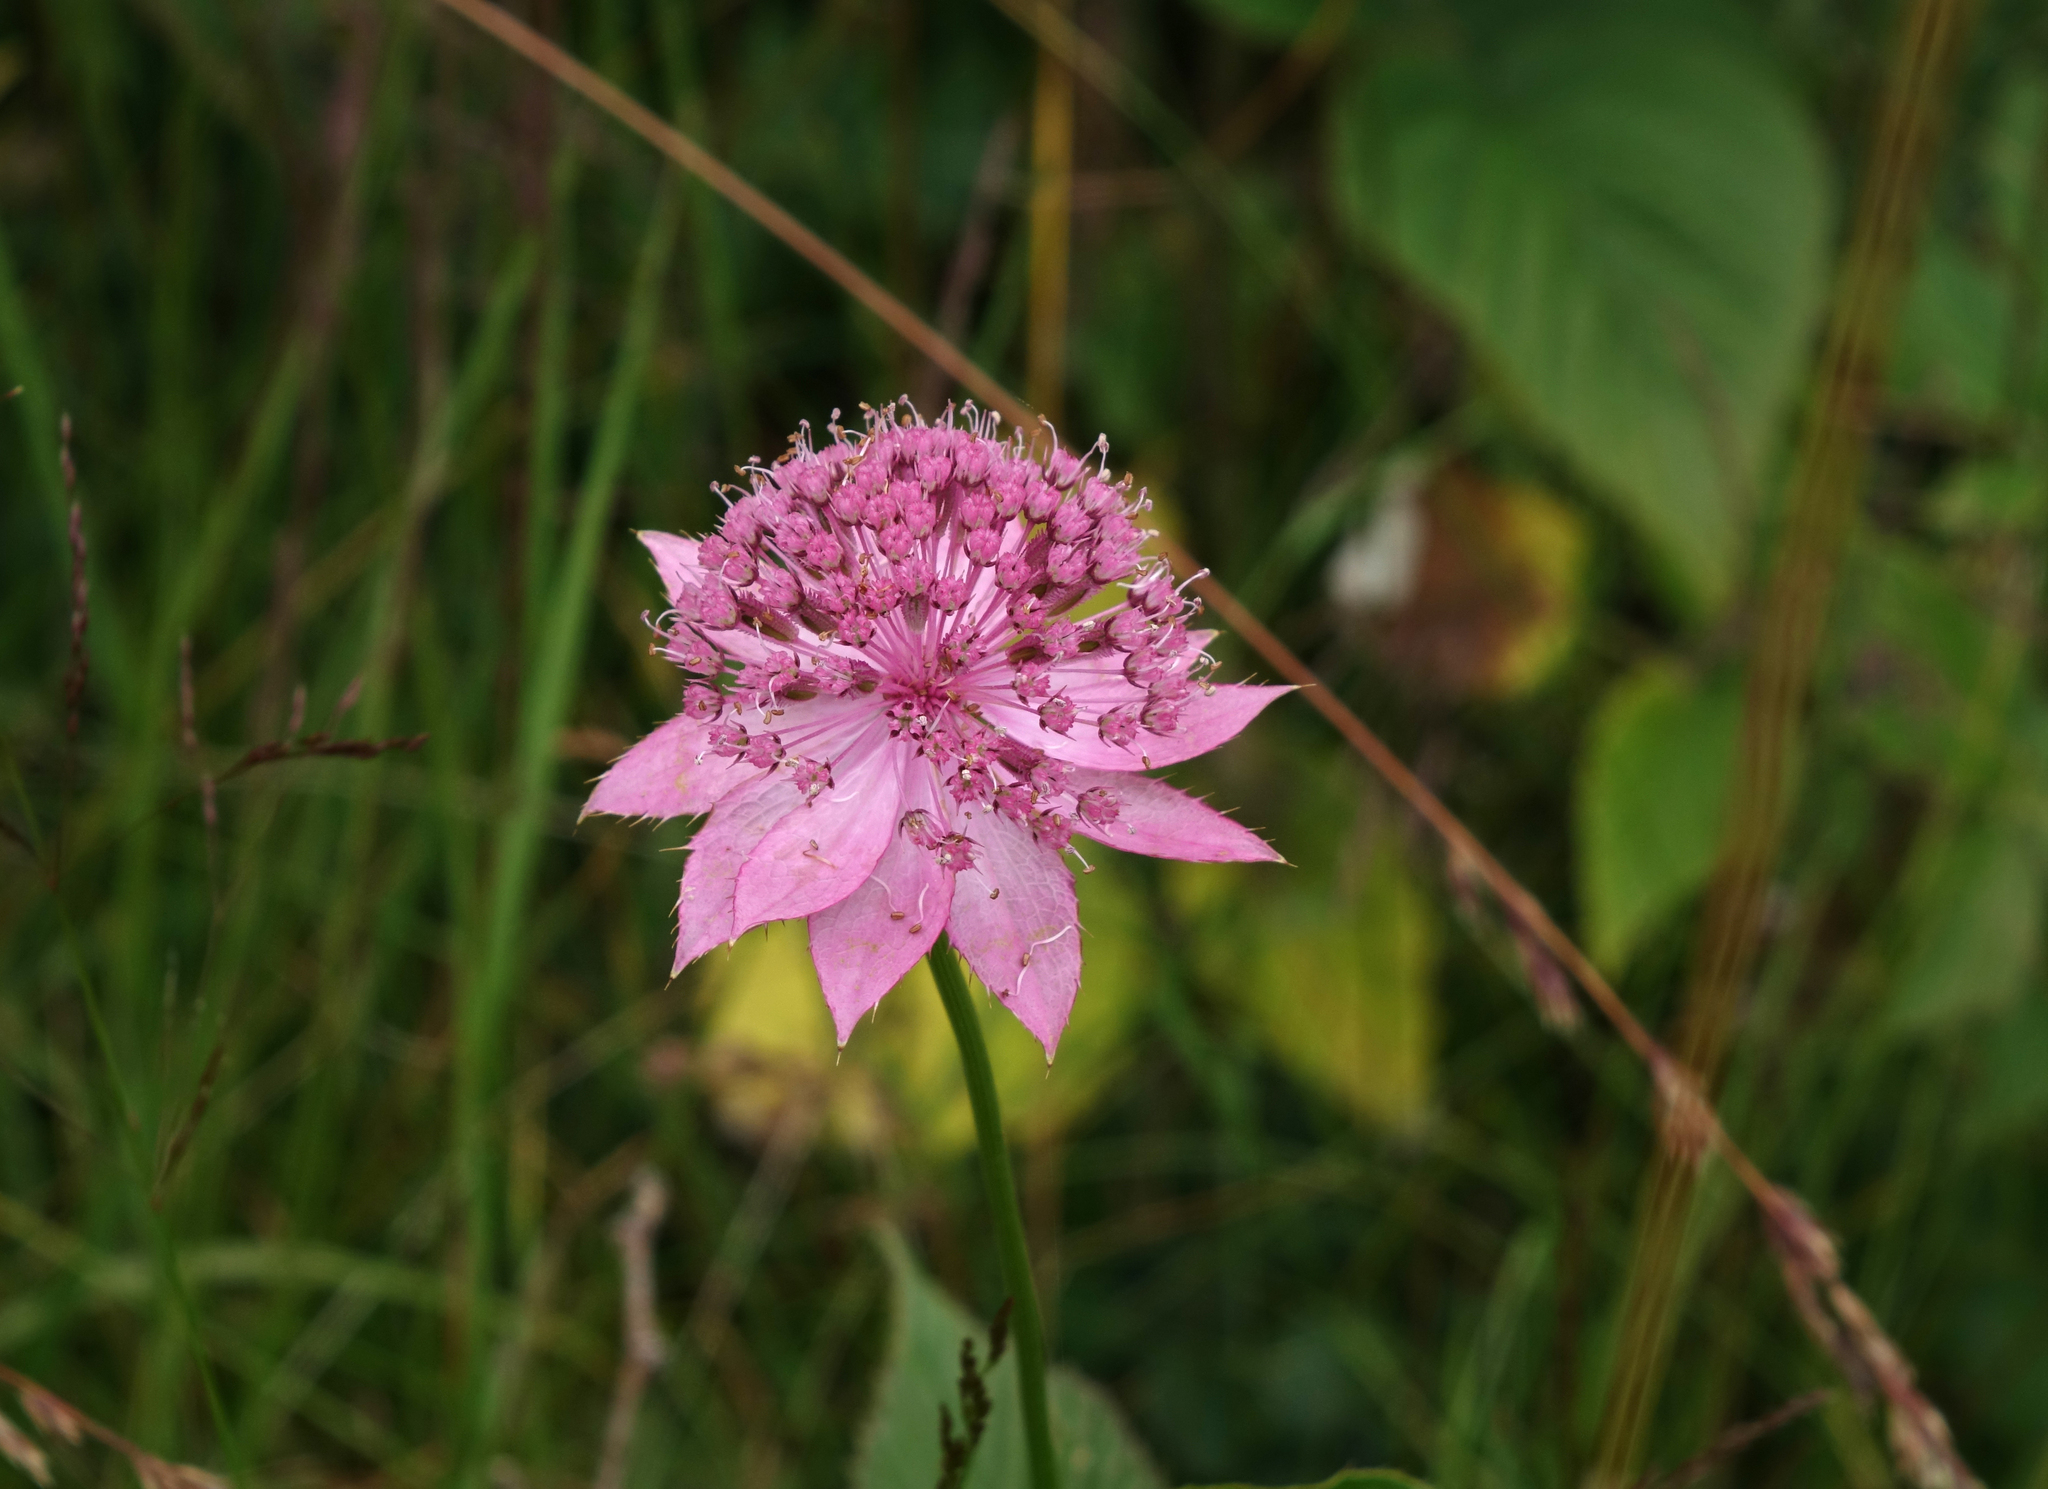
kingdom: Plantae
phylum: Tracheophyta
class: Magnoliopsida
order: Apiales
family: Apiaceae
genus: Astrantia
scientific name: Astrantia maxima
